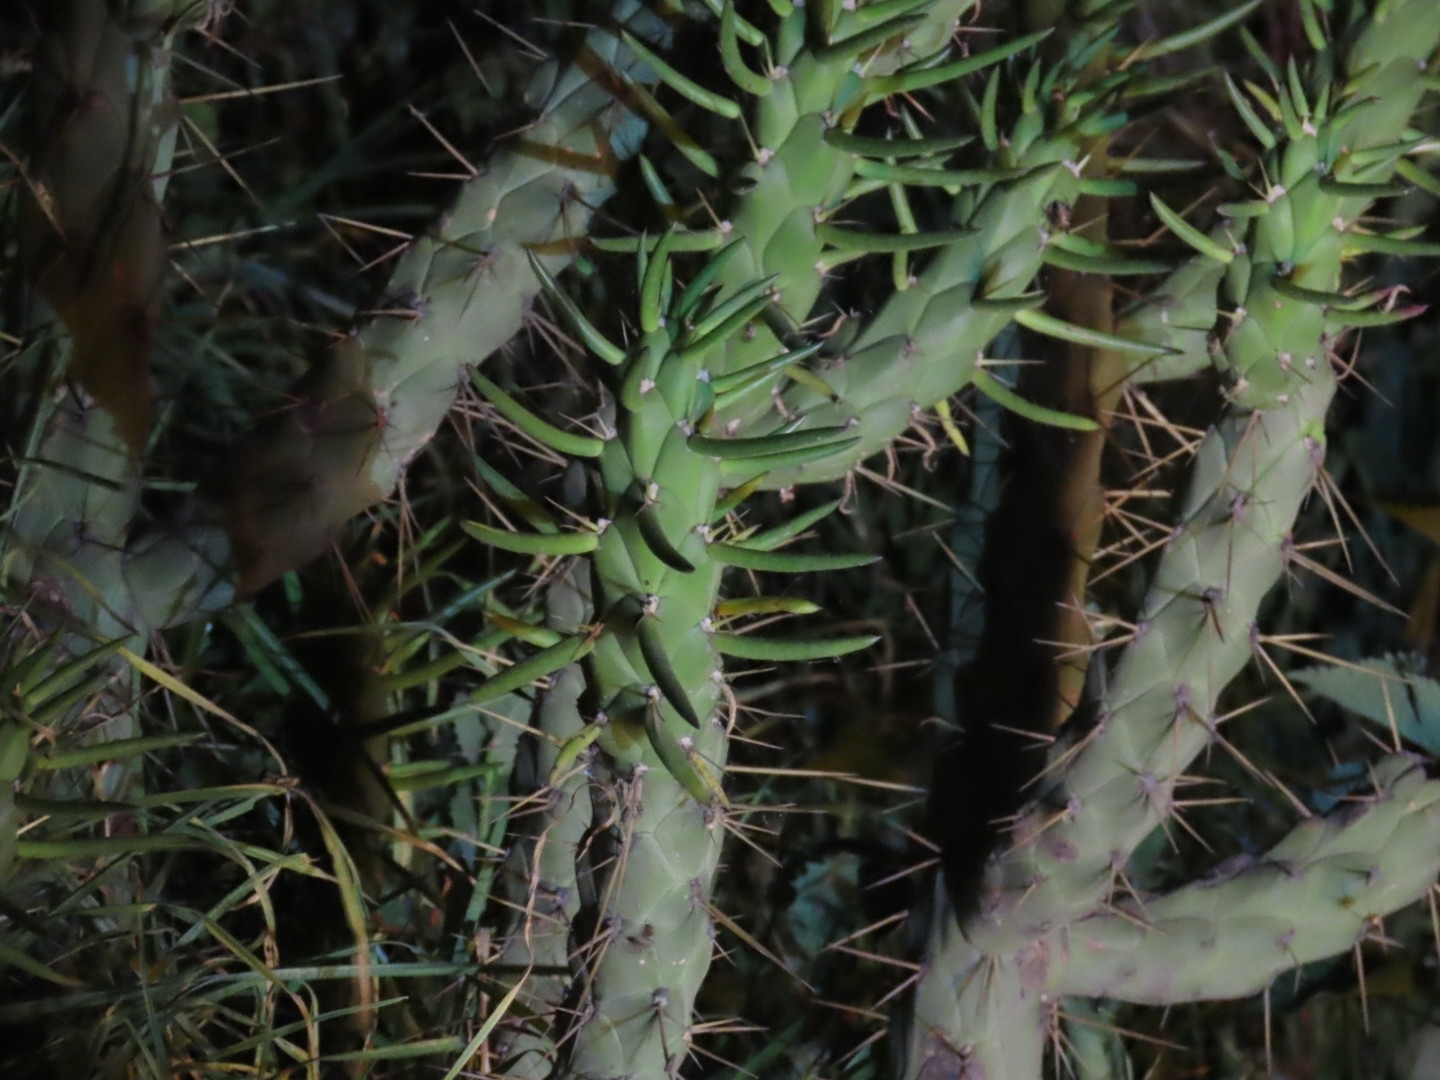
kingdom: Plantae
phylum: Tracheophyta
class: Magnoliopsida
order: Caryophyllales
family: Cactaceae
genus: Austrocylindropuntia
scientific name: Austrocylindropuntia subulata
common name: Eve's needle cactus
